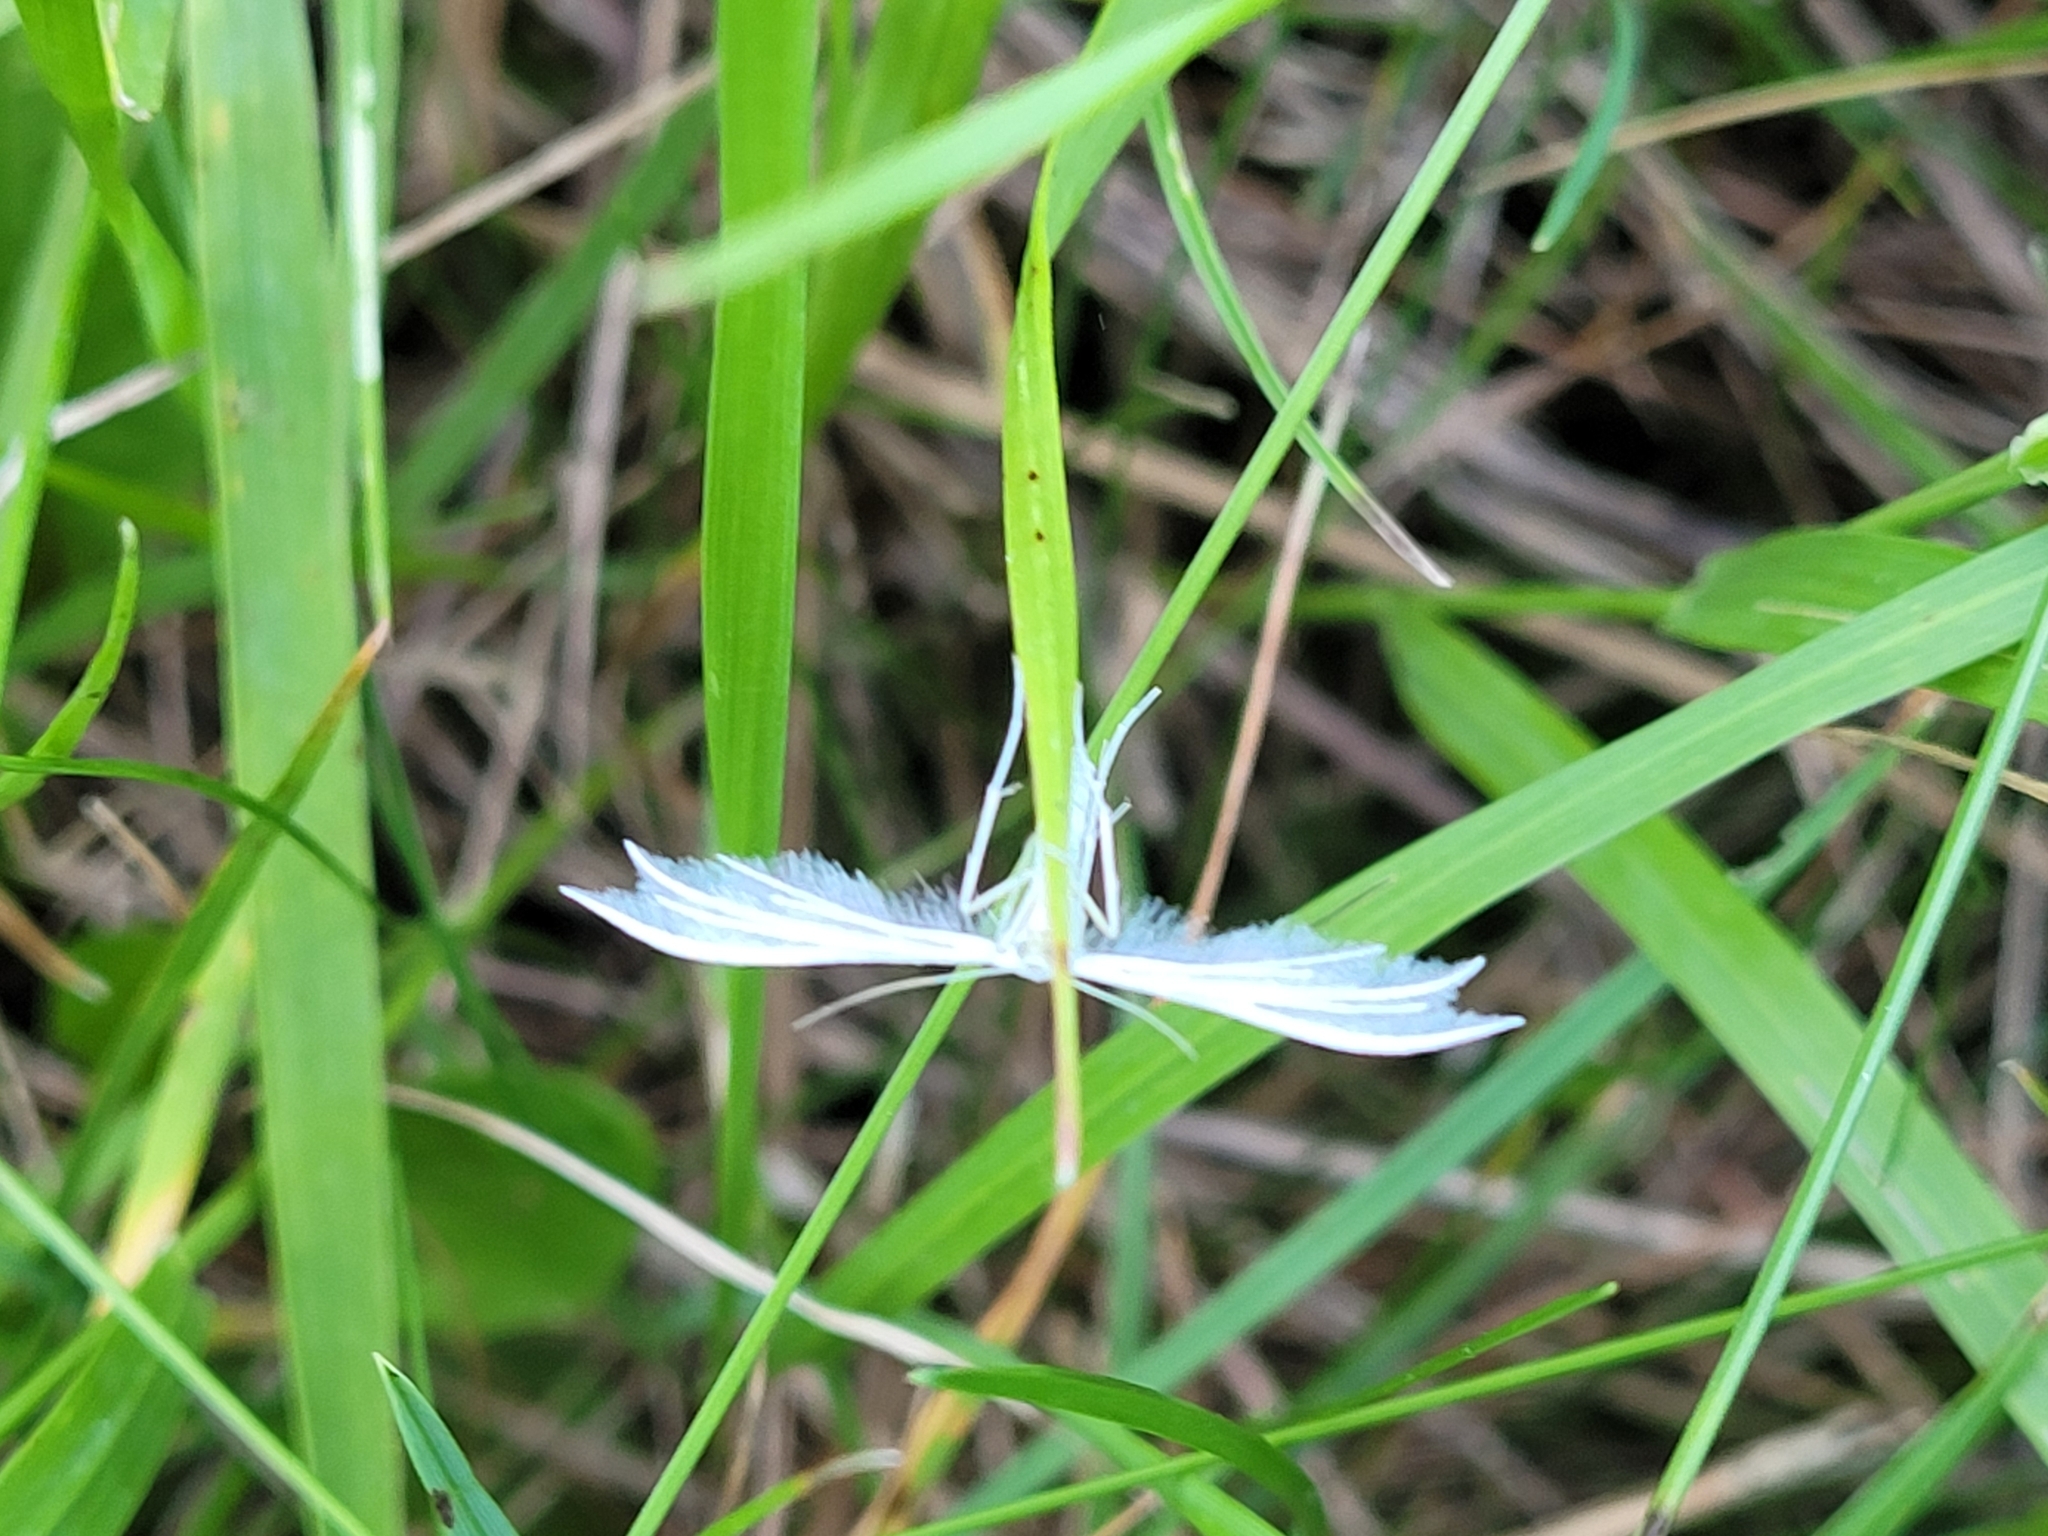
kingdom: Animalia
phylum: Arthropoda
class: Insecta
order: Lepidoptera
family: Pterophoridae
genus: Pterophorus
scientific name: Pterophorus pentadactyla
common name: White plume moth
